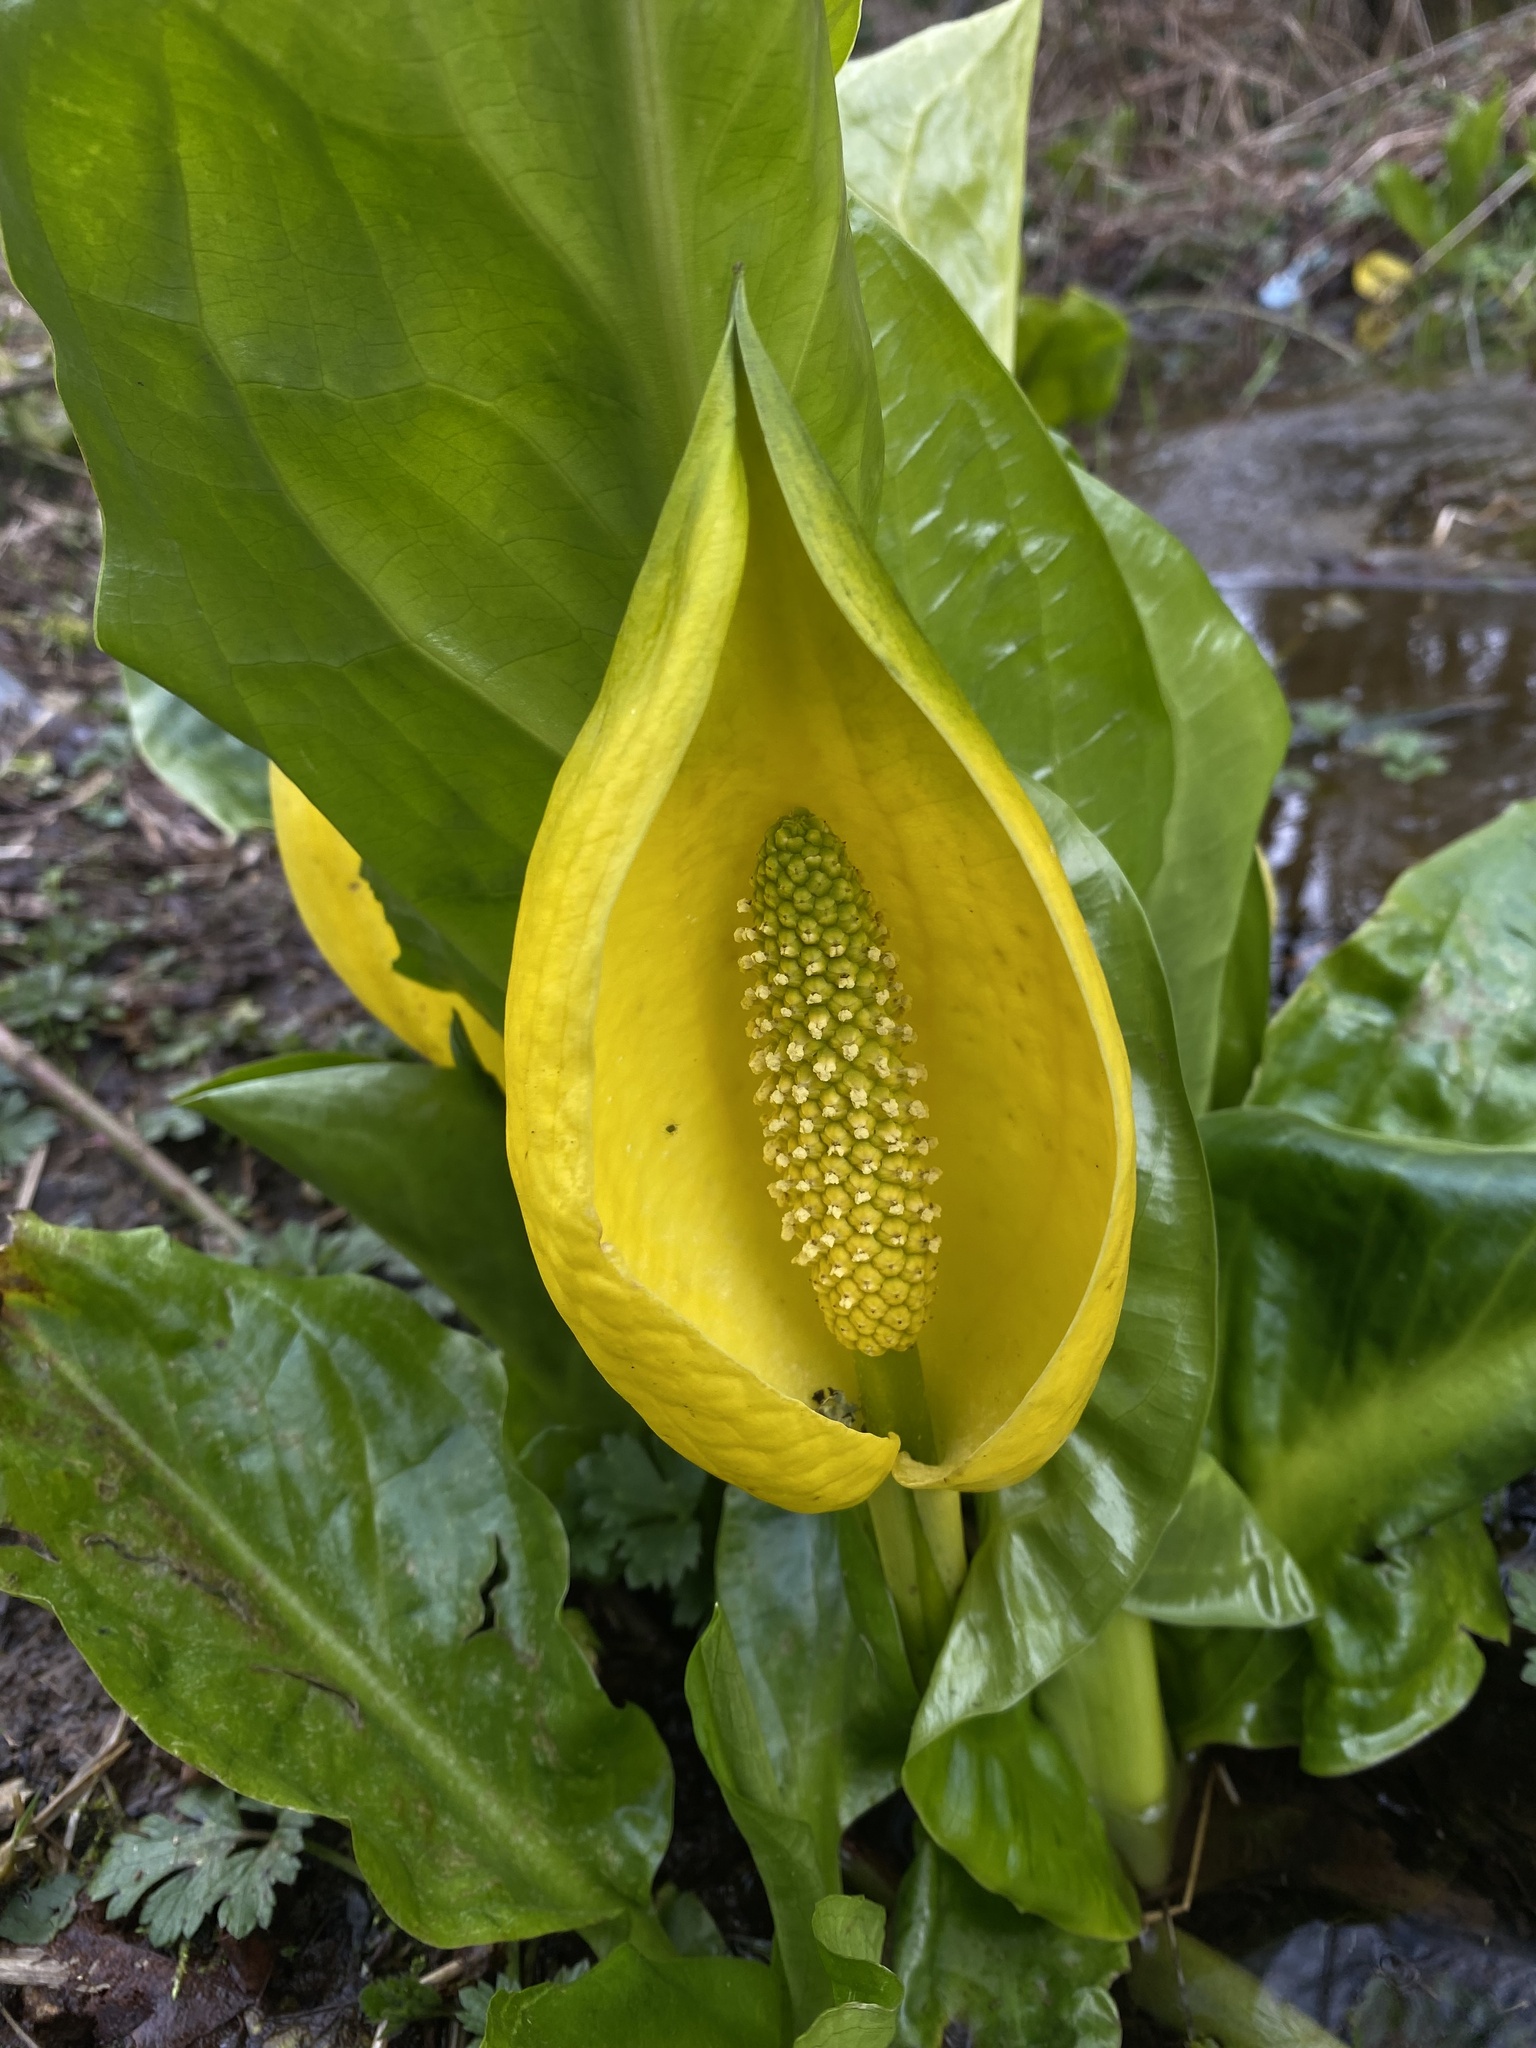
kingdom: Plantae
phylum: Tracheophyta
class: Liliopsida
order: Alismatales
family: Araceae
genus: Lysichiton
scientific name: Lysichiton americanus
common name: American skunk cabbage
